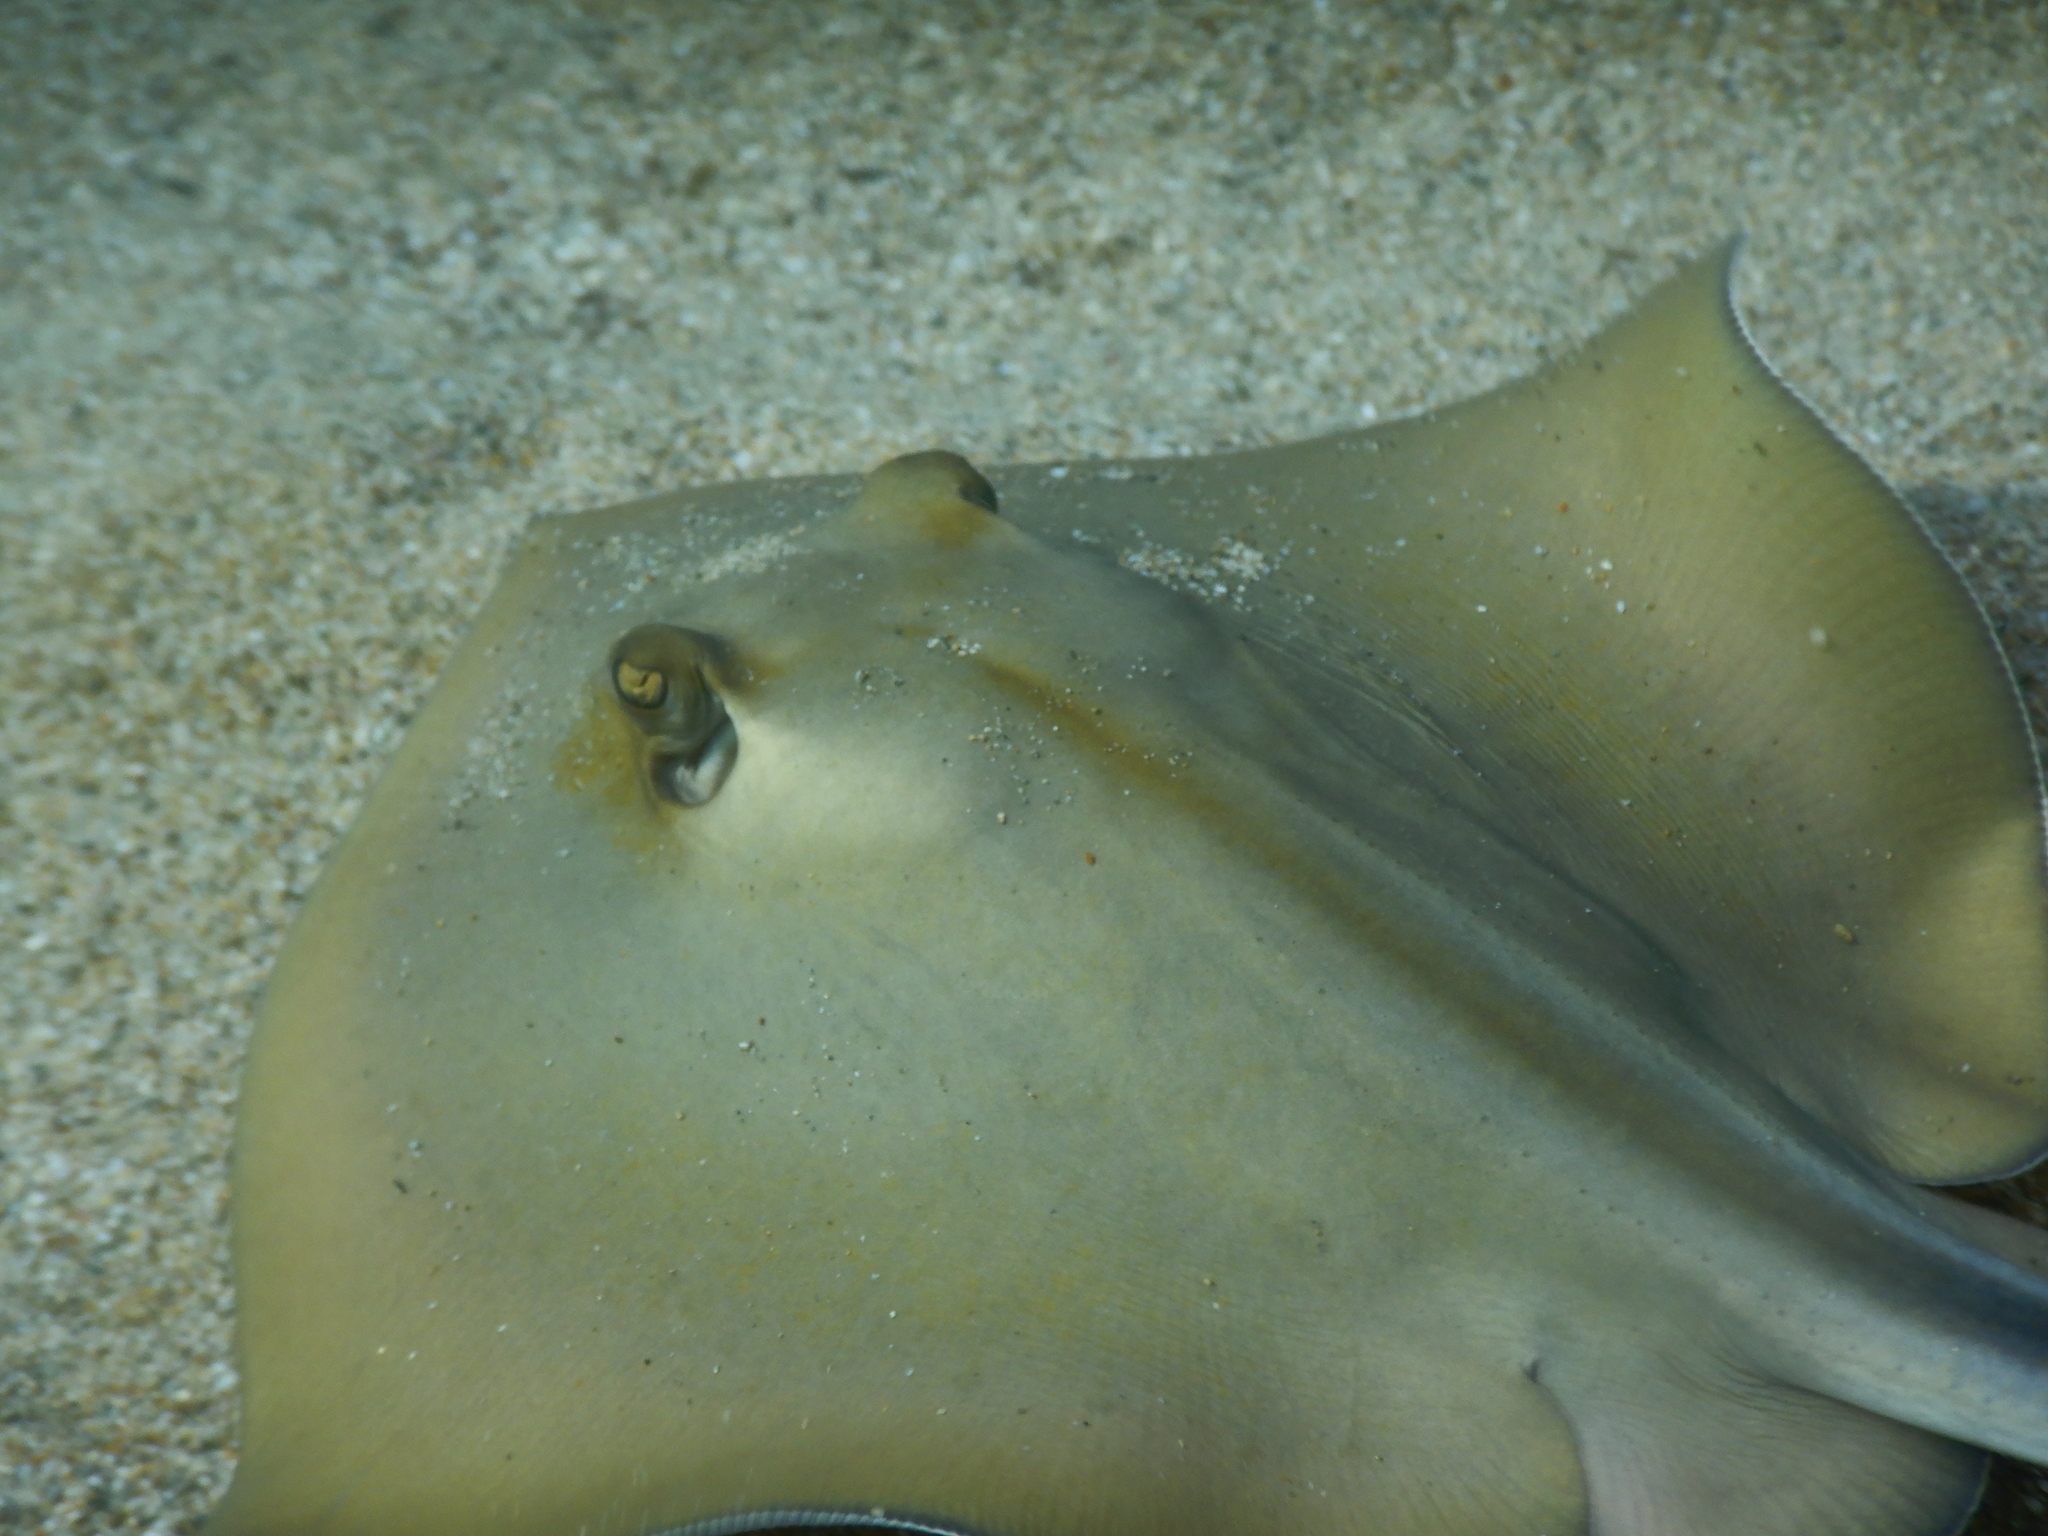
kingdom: Animalia
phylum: Chordata
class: Elasmobranchii
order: Myliobatiformes
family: Dasyatidae
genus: Dasyatis
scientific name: Dasyatis pastinaca
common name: Common stingray
